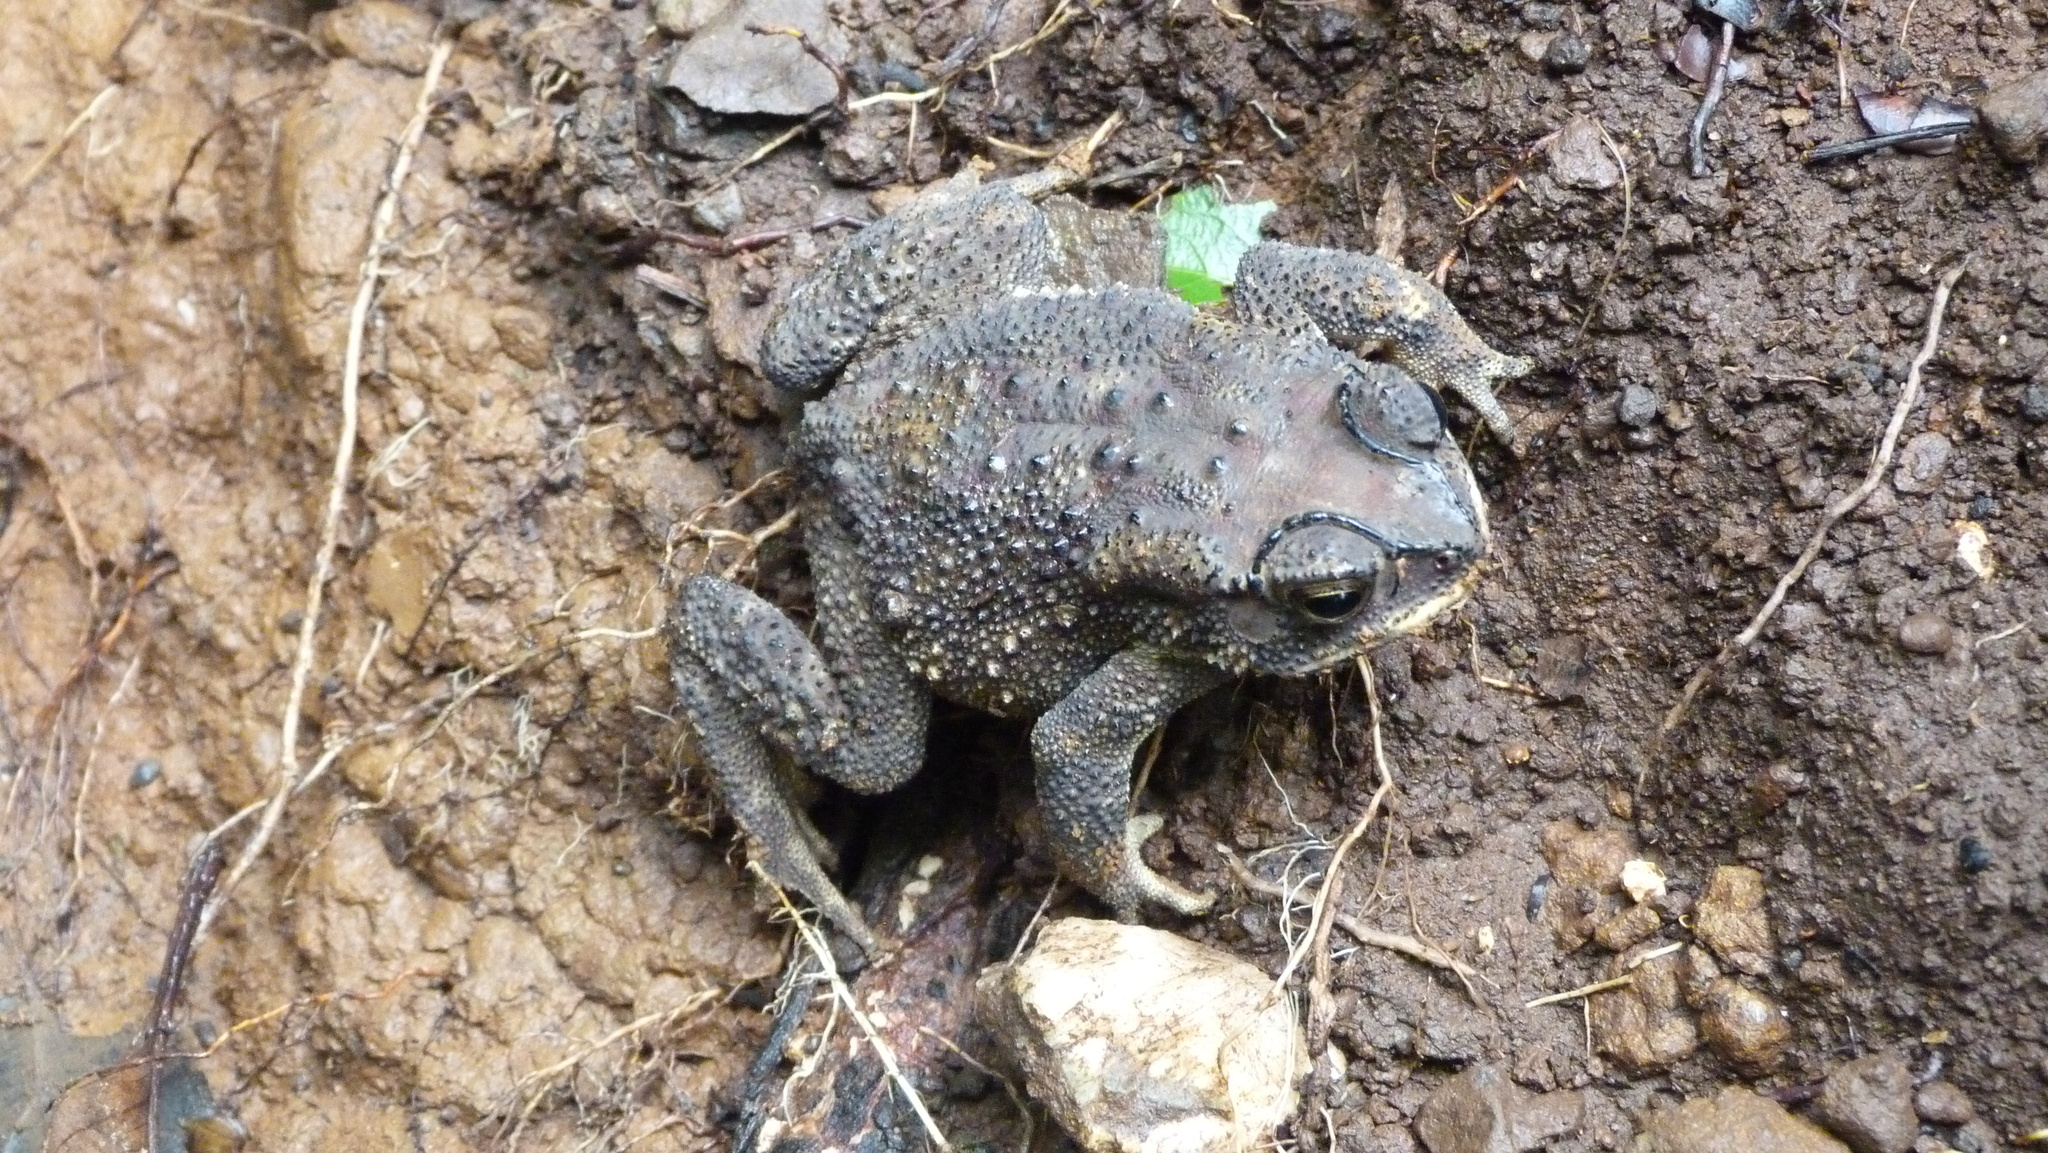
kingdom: Animalia
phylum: Chordata
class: Amphibia
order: Anura
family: Bufonidae
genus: Duttaphrynus
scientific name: Duttaphrynus melanostictus
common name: Common sunda toad
